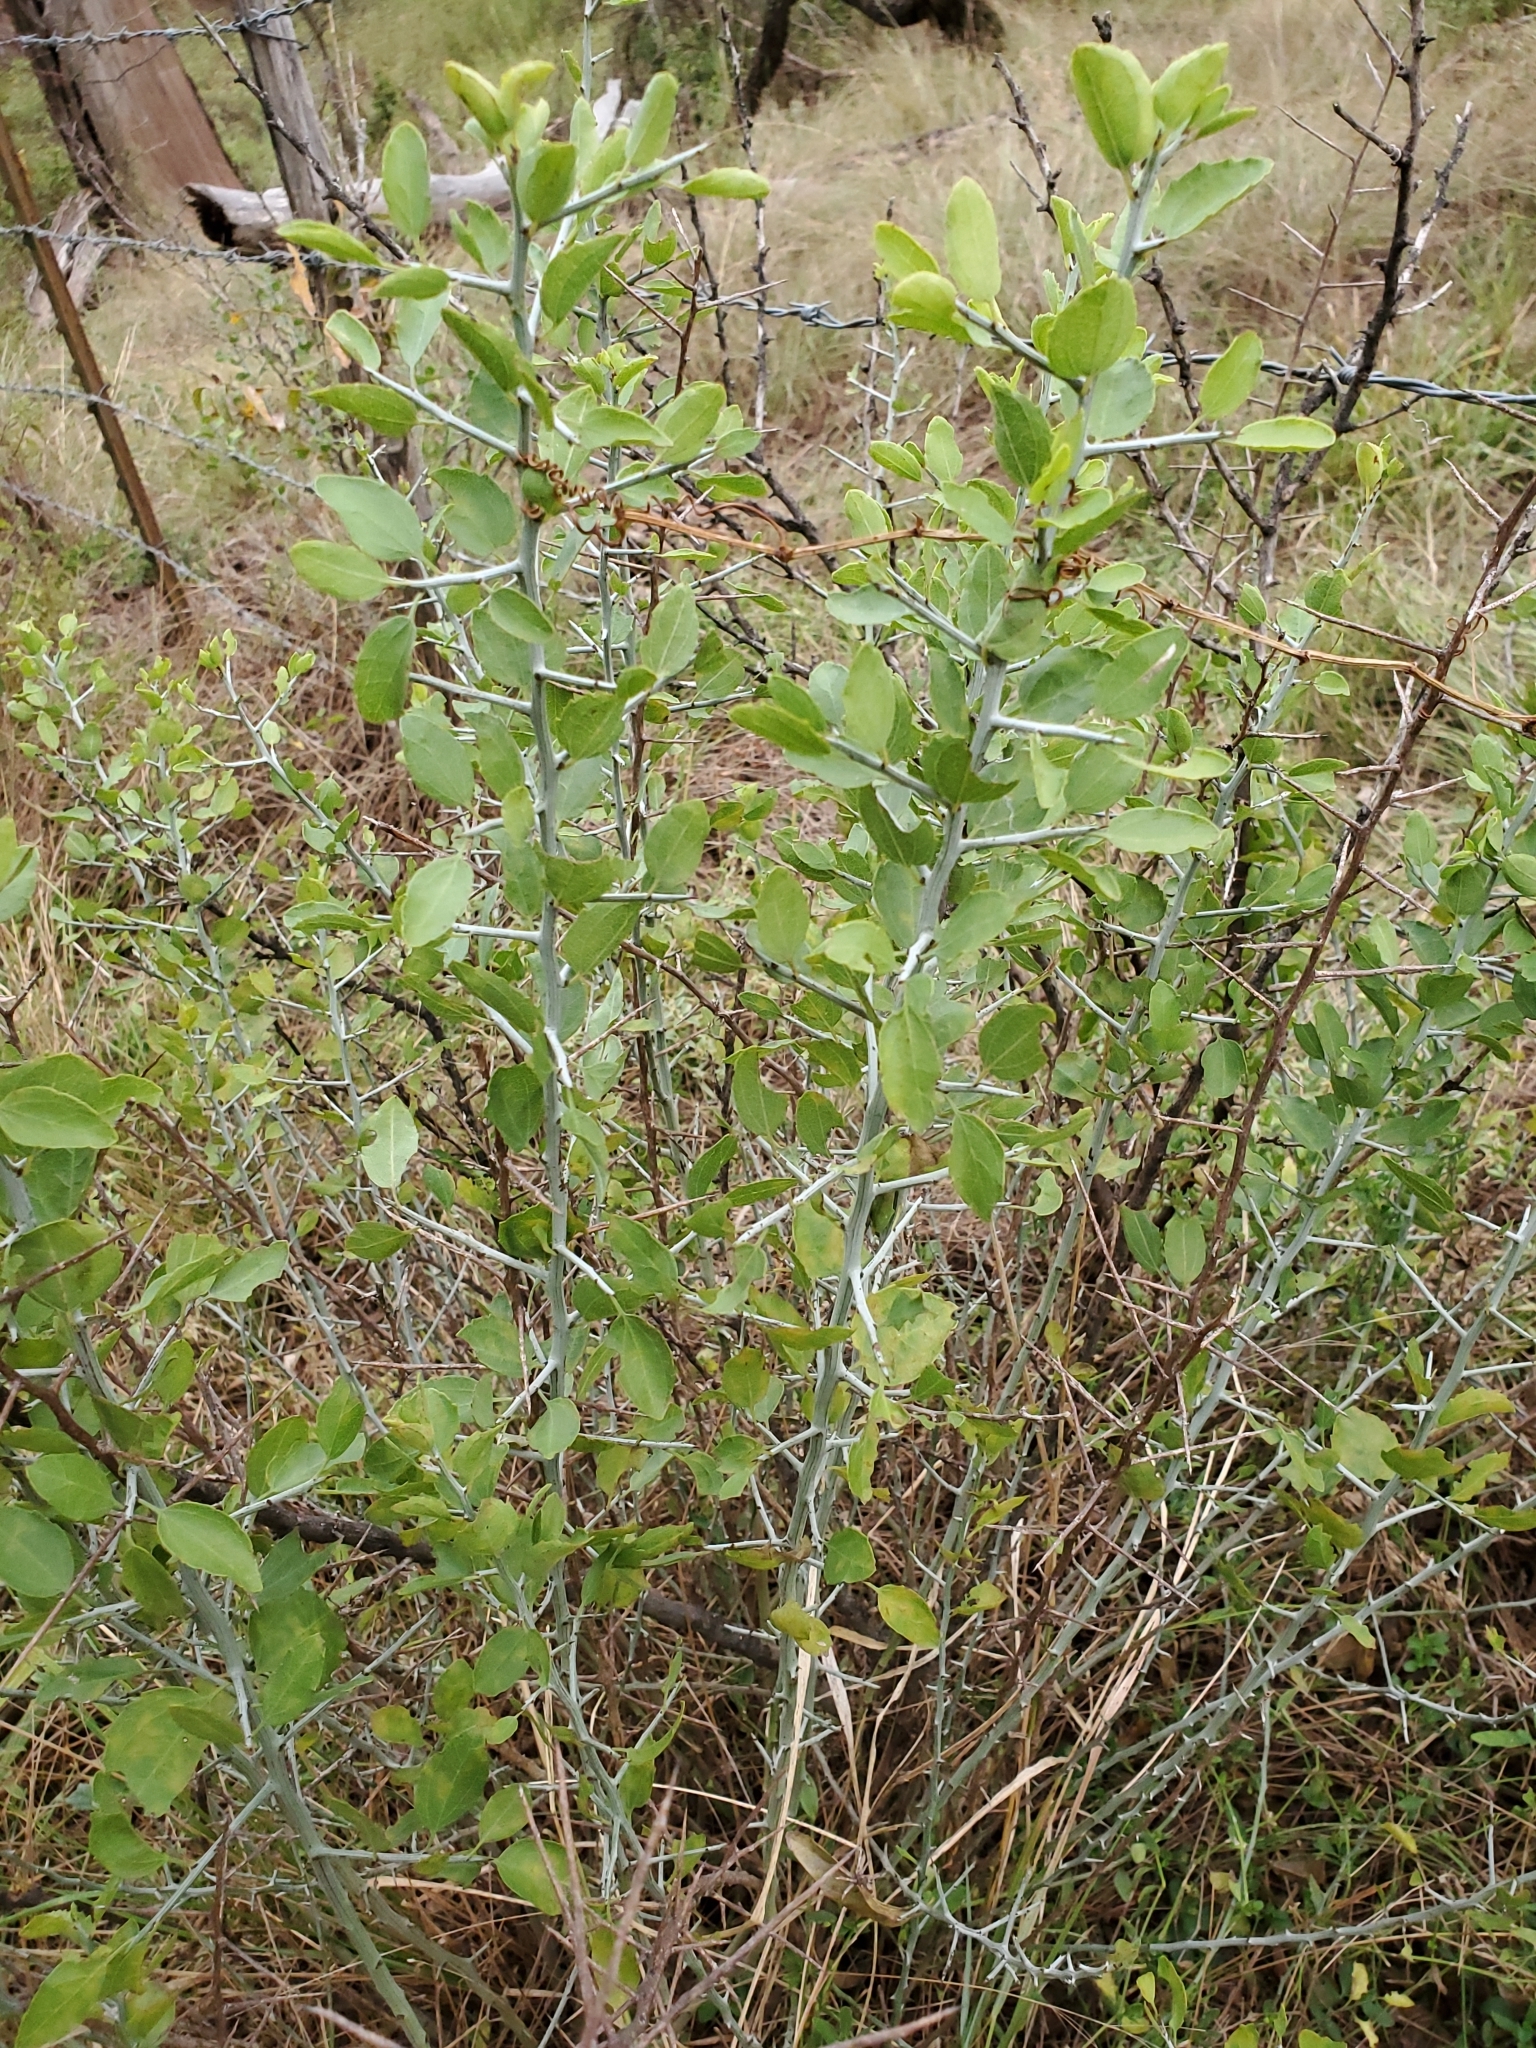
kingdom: Plantae
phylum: Tracheophyta
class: Magnoliopsida
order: Rosales
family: Rhamnaceae
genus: Sarcomphalus
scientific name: Sarcomphalus obtusifolius
